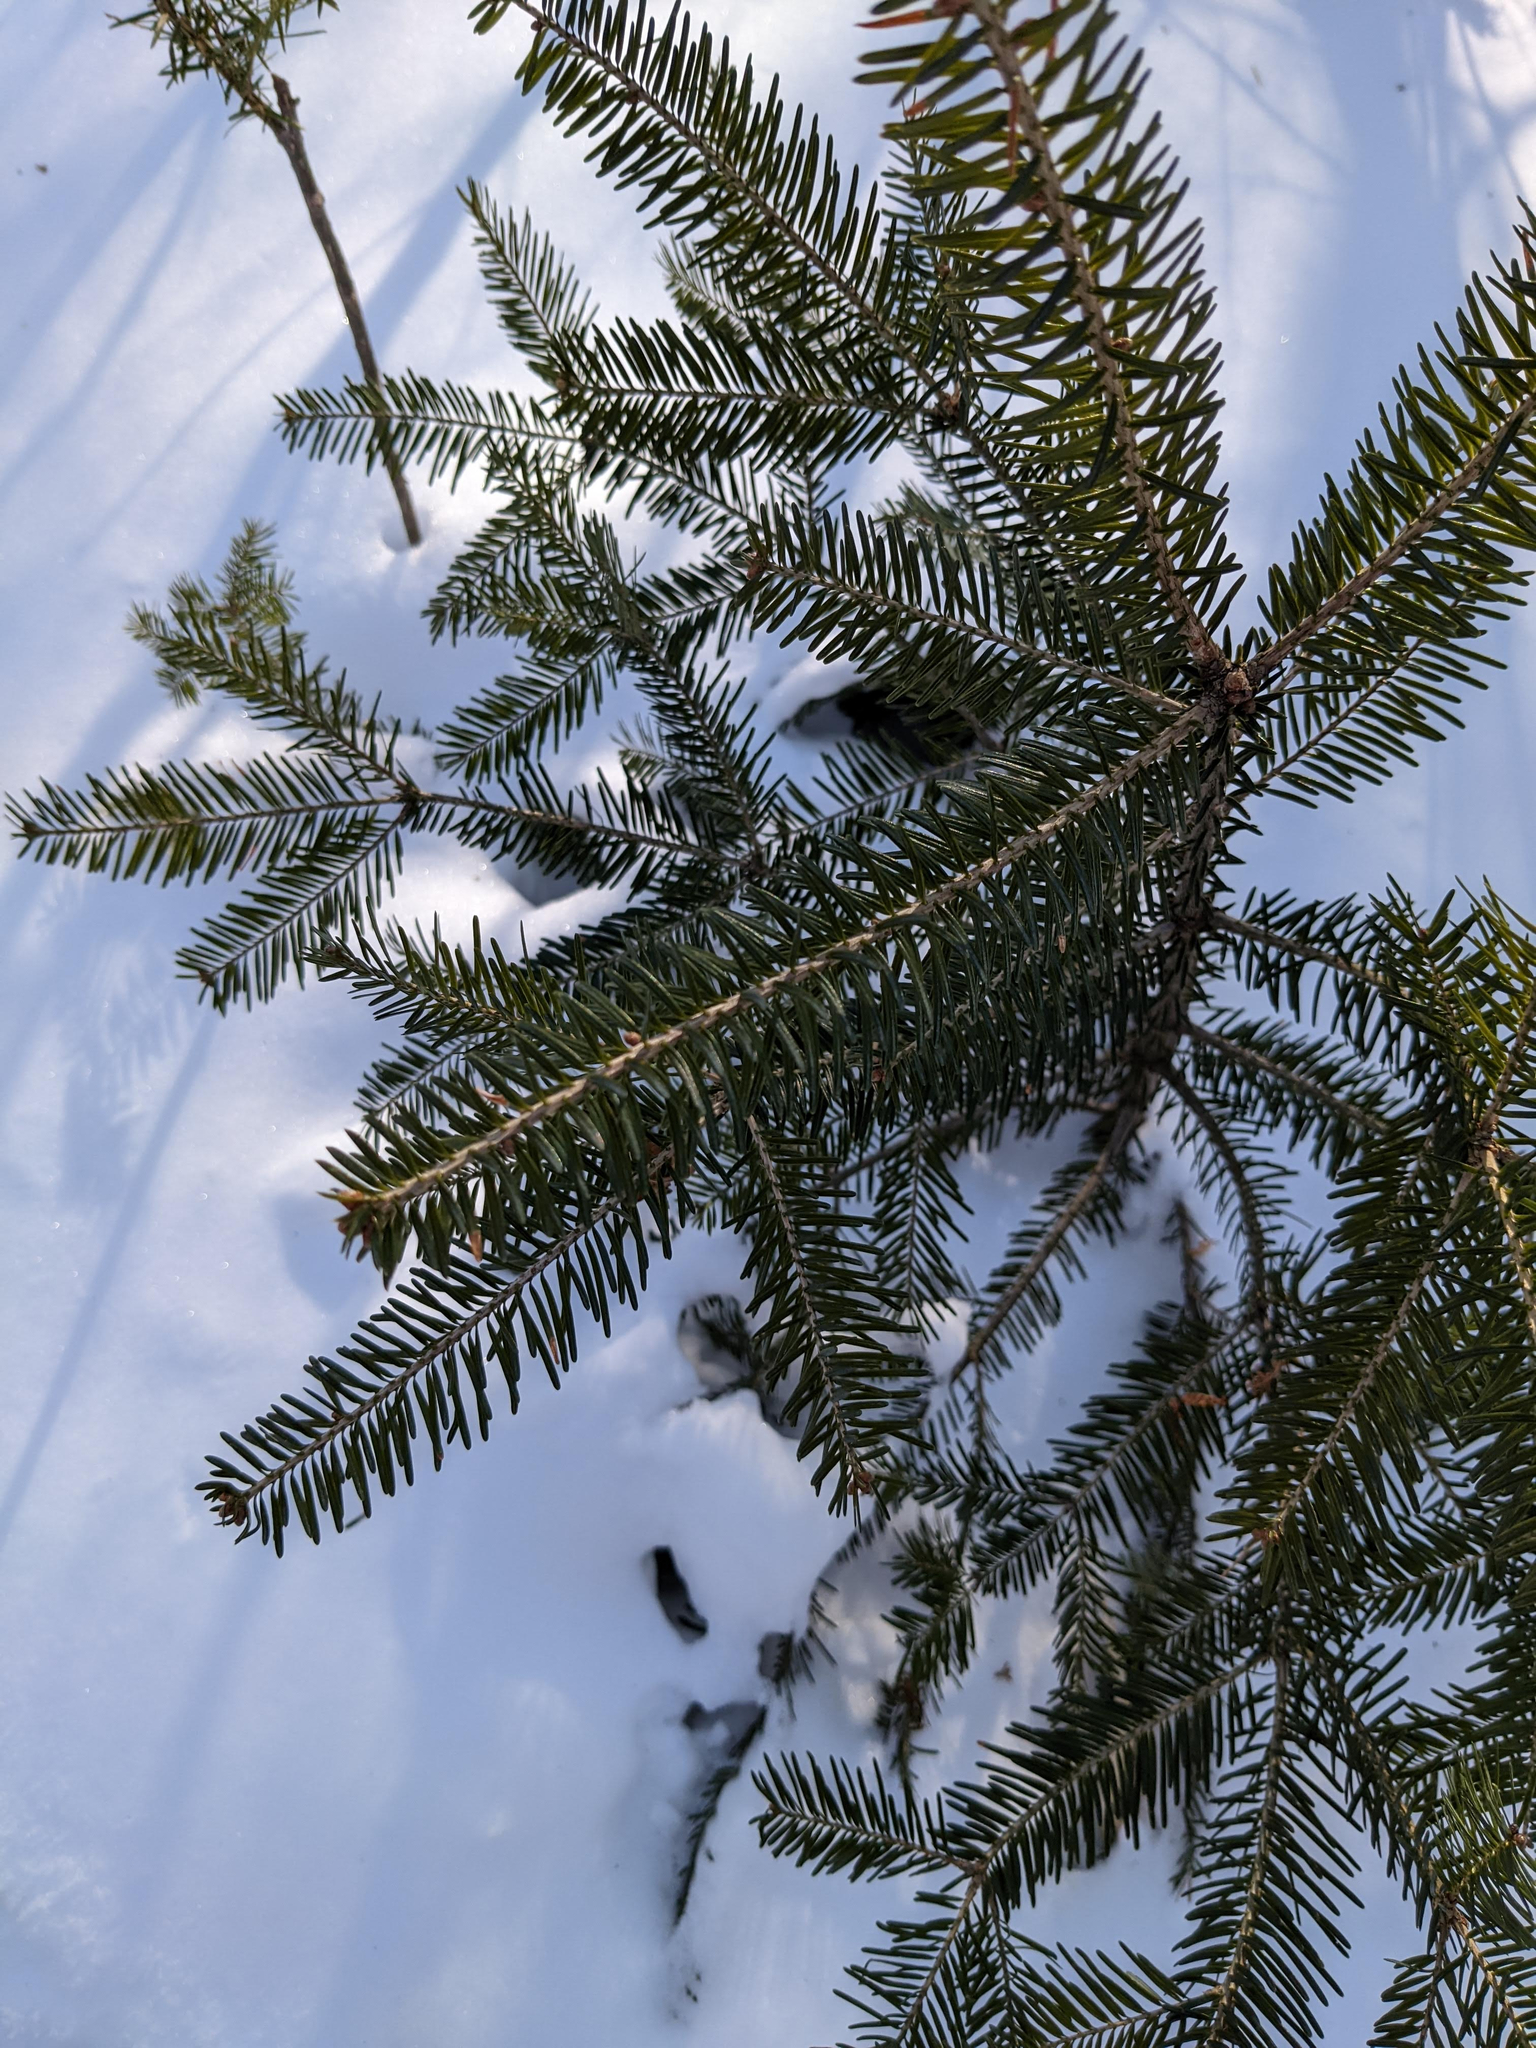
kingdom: Plantae
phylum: Tracheophyta
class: Pinopsida
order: Pinales
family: Pinaceae
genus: Abies
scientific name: Abies balsamea
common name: Balsam fir
